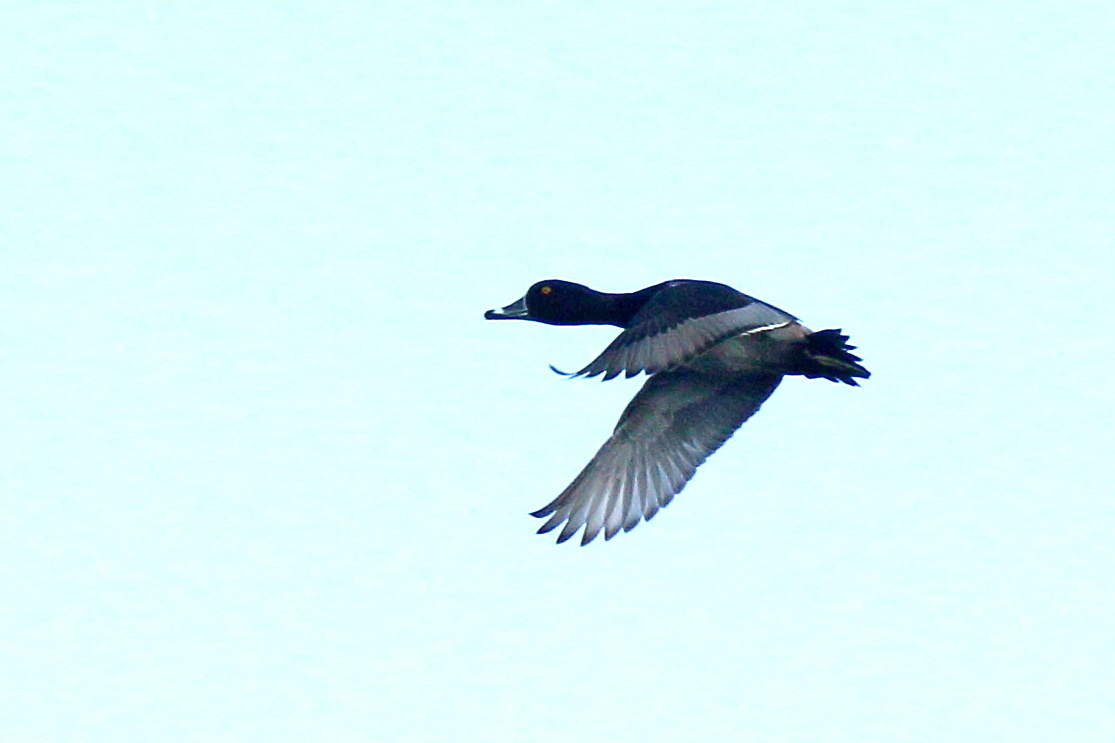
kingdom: Animalia
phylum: Chordata
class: Aves
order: Anseriformes
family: Anatidae
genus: Aythya
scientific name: Aythya collaris
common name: Ring-necked duck
